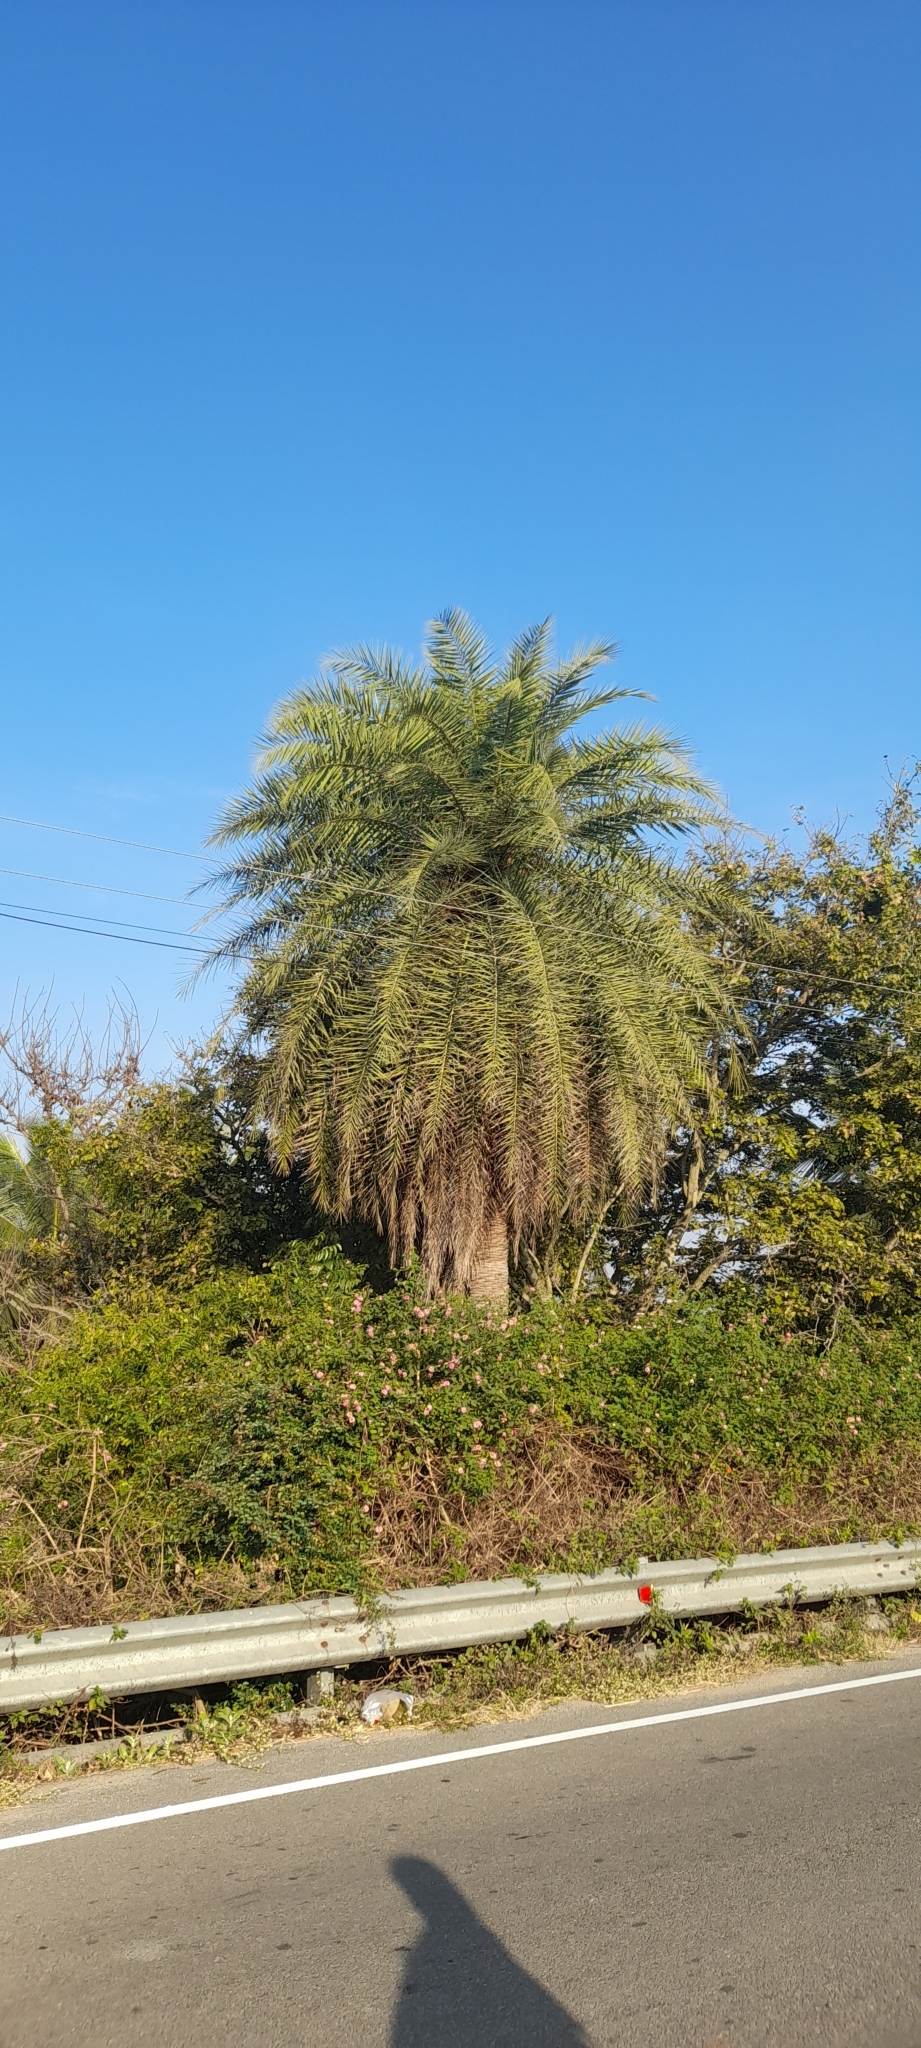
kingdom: Plantae
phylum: Tracheophyta
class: Liliopsida
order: Arecales
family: Arecaceae
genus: Phoenix
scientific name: Phoenix sylvestris
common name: Wild date palm
